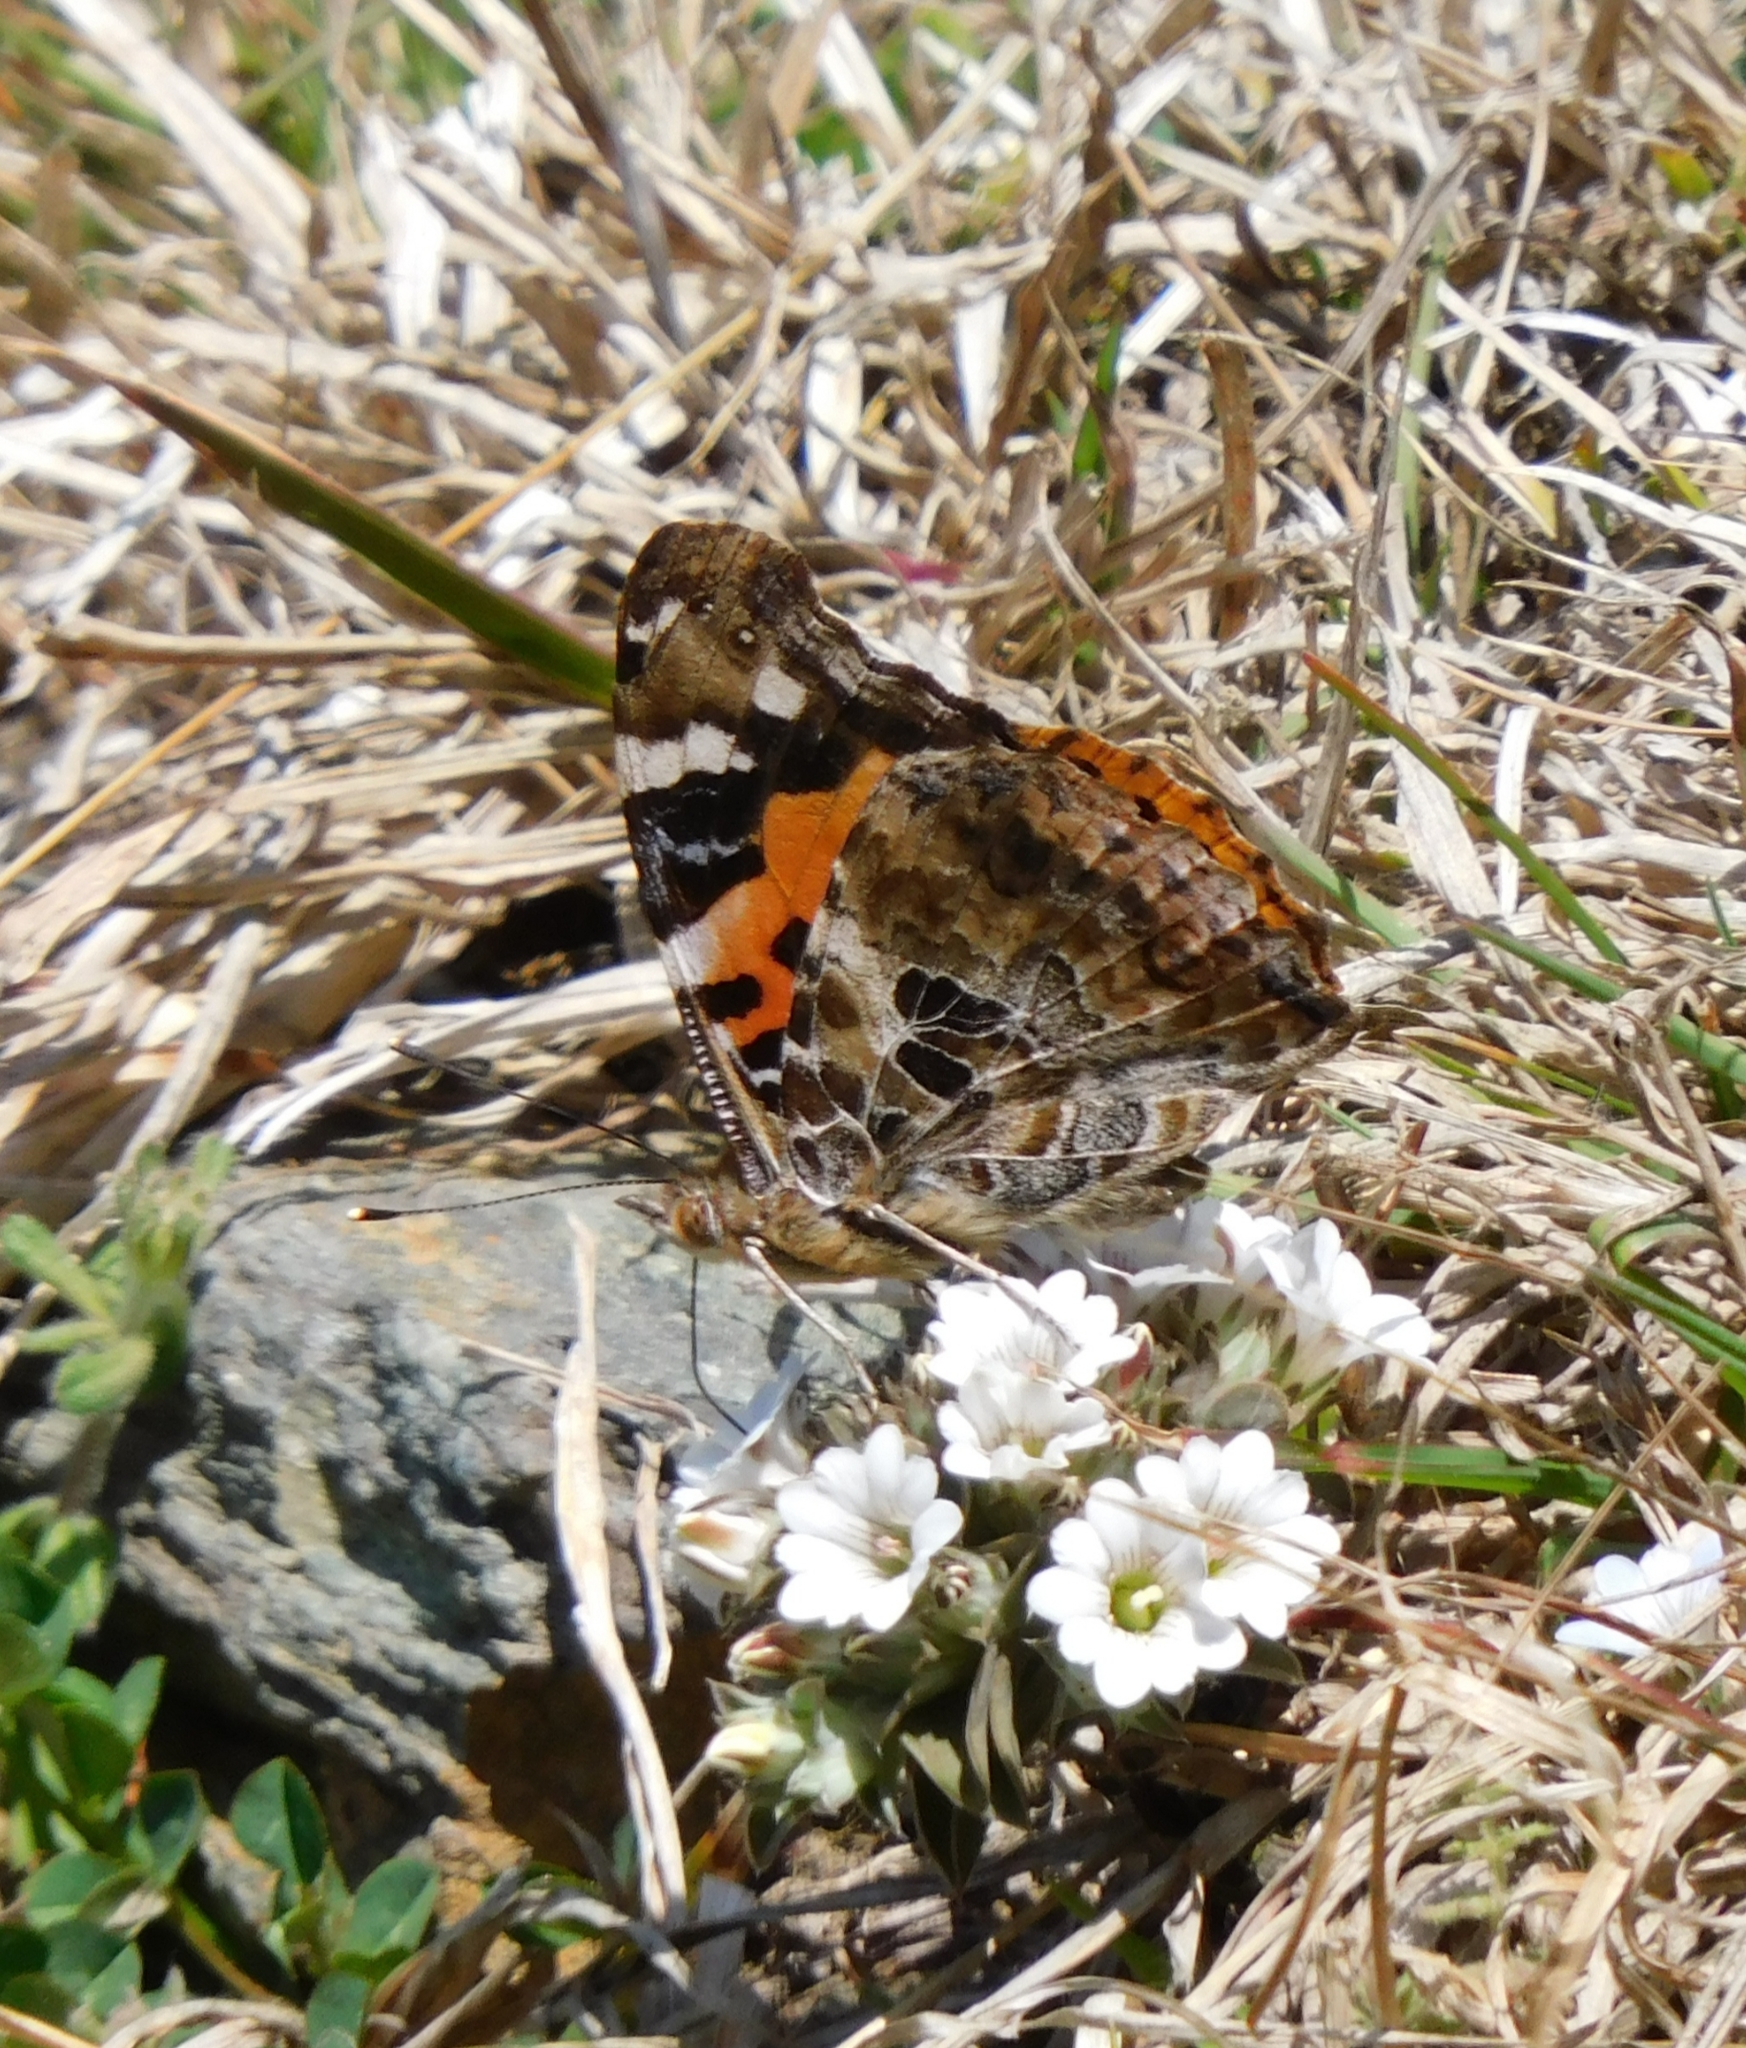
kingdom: Animalia
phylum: Arthropoda
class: Insecta
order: Lepidoptera
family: Nymphalidae
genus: Vanessa
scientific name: Vanessa indica
